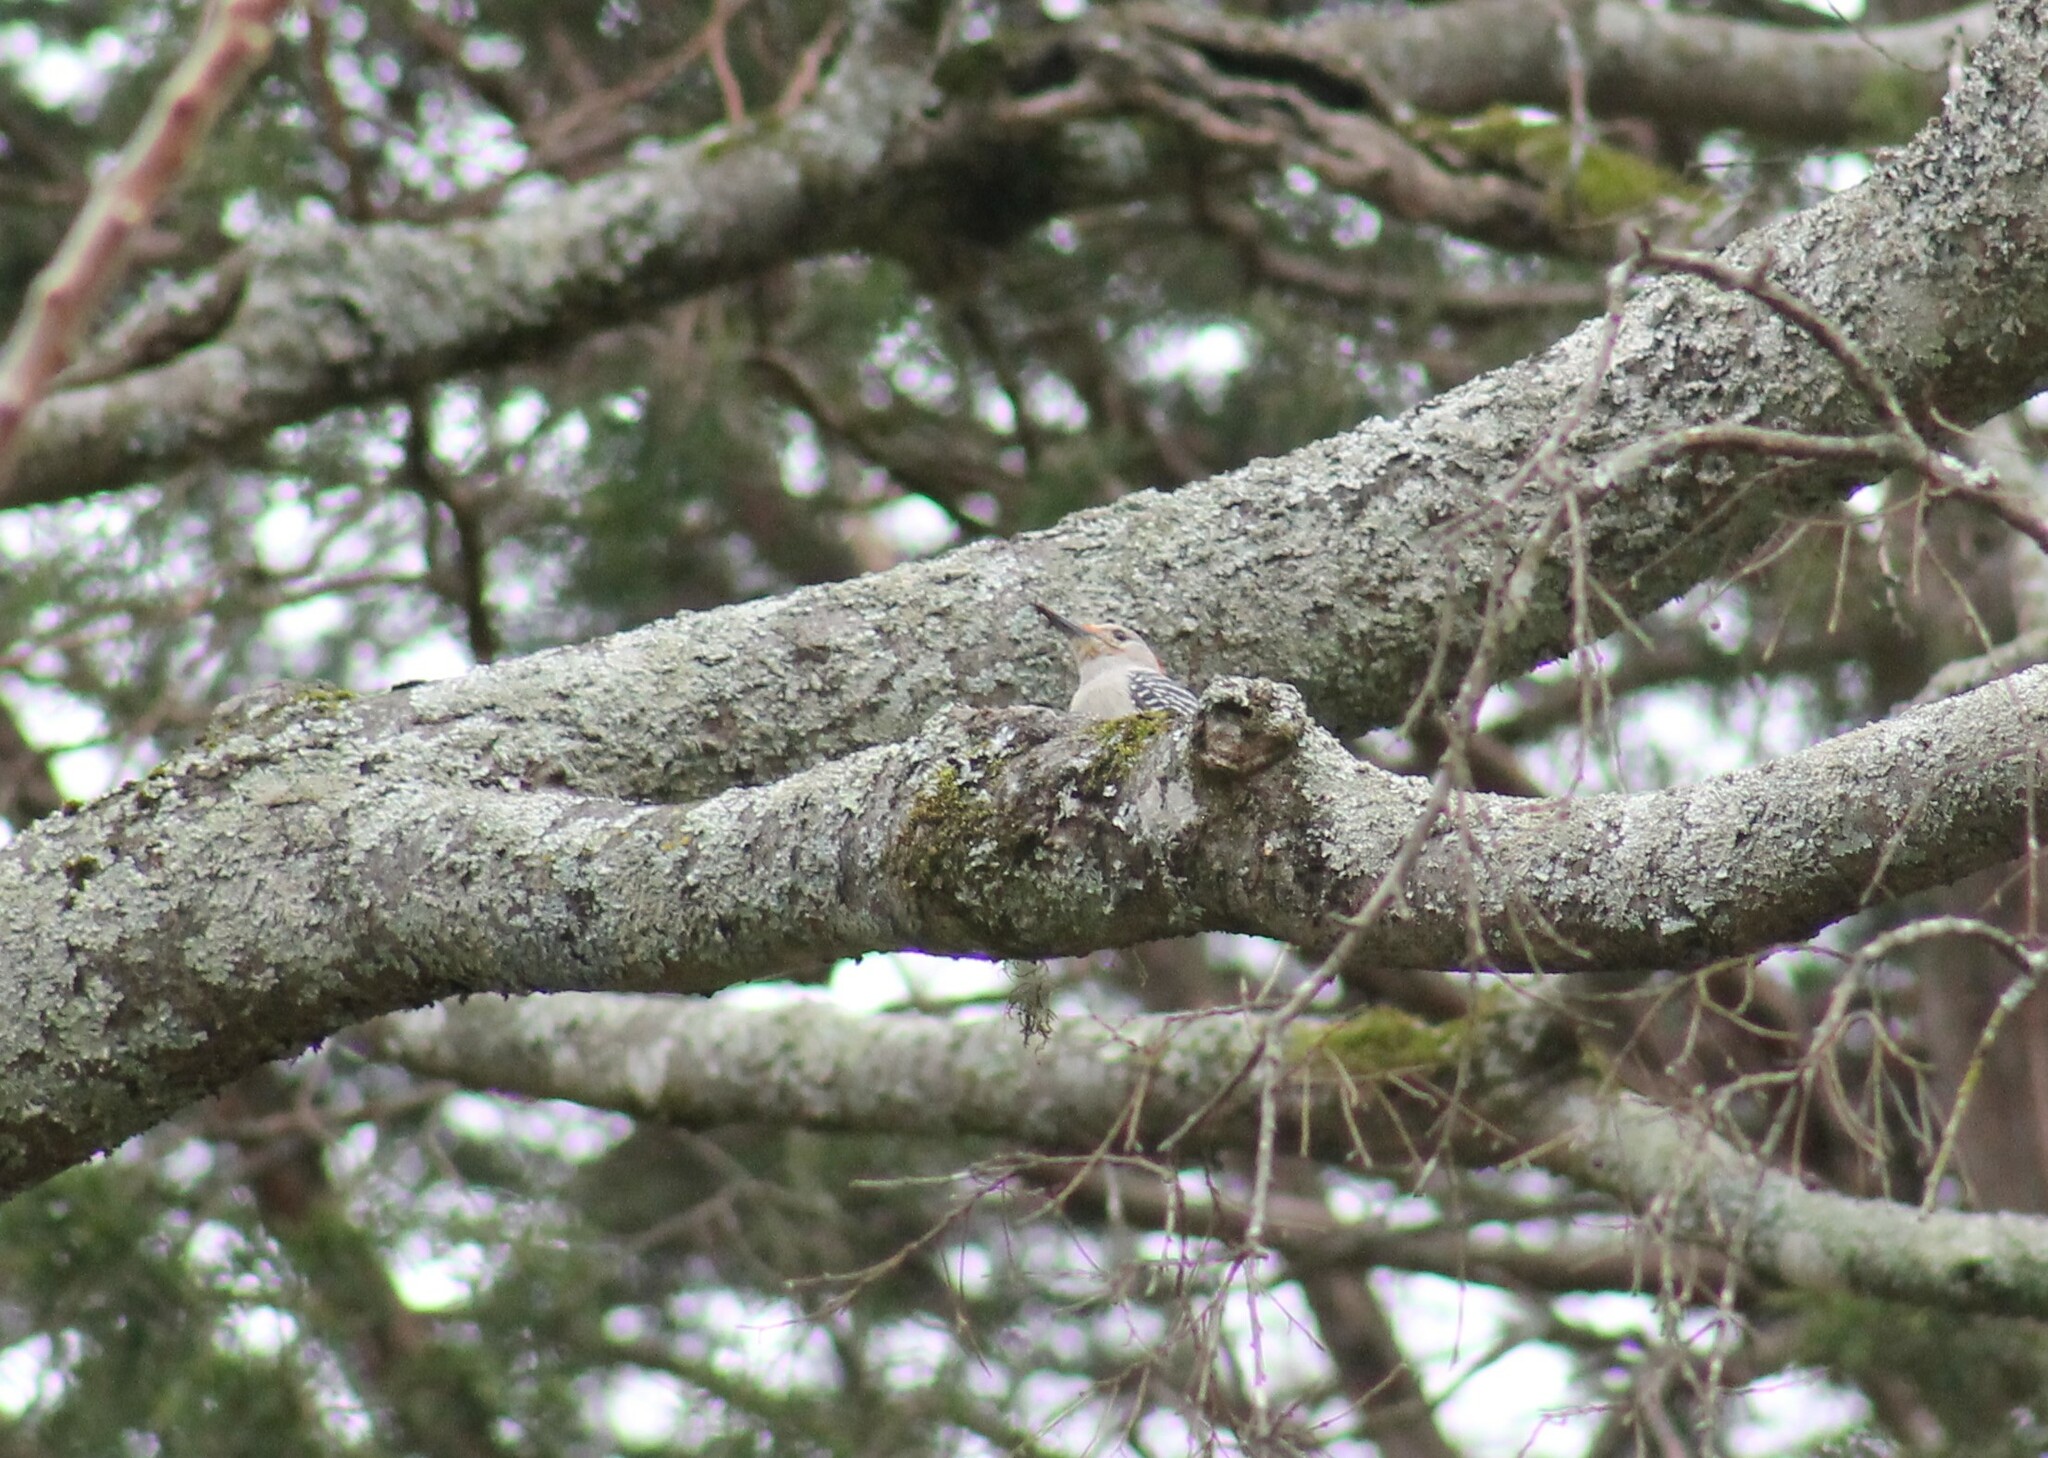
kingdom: Animalia
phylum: Chordata
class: Aves
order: Piciformes
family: Picidae
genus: Melanerpes
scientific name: Melanerpes carolinus
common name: Red-bellied woodpecker
